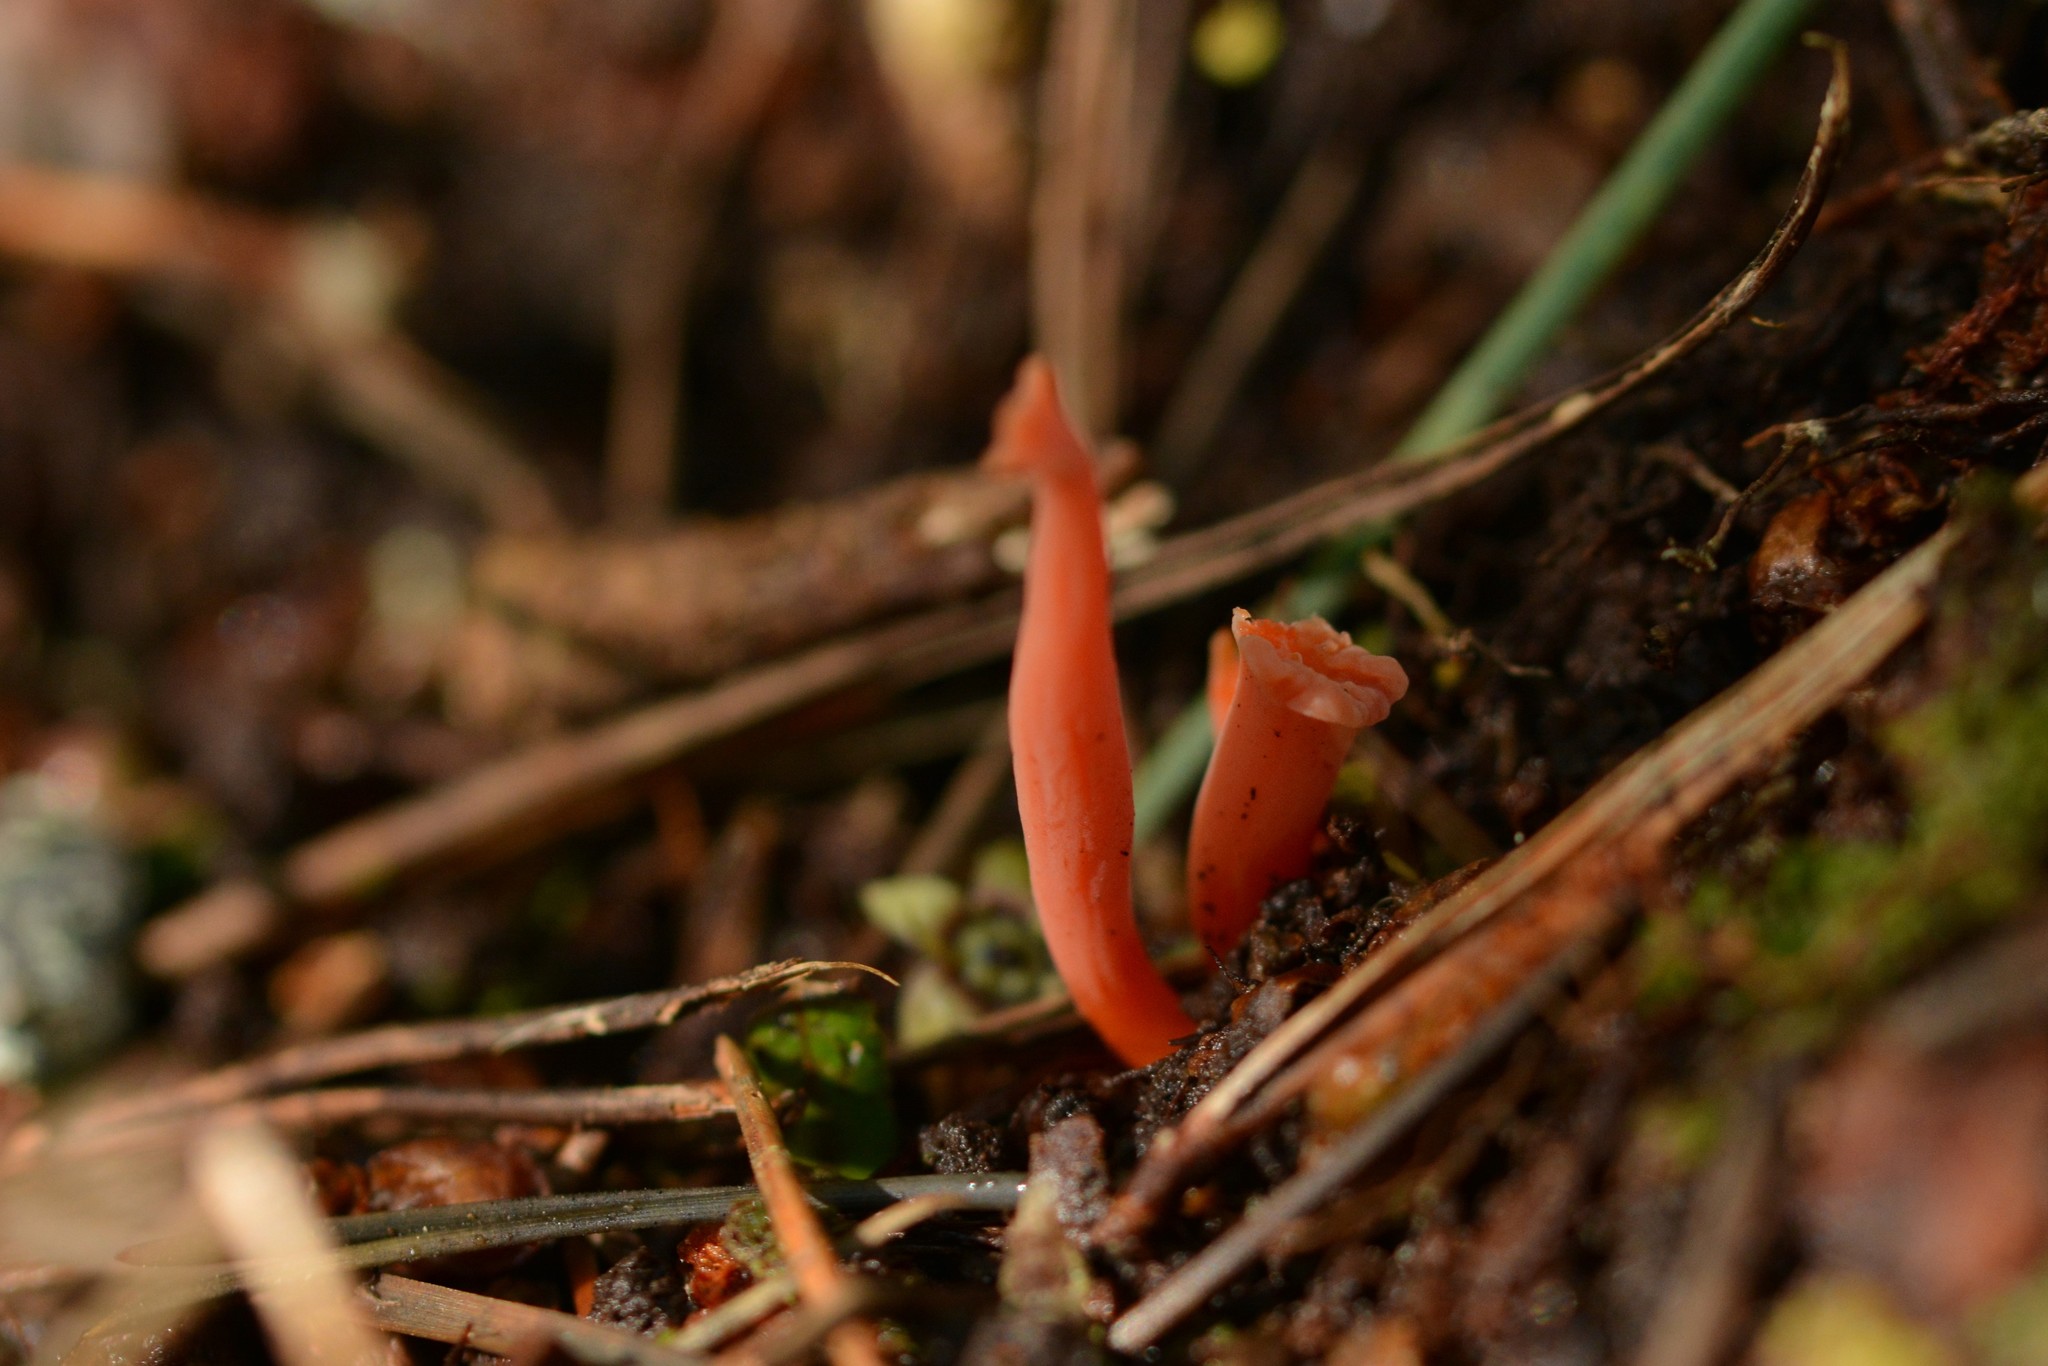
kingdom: Fungi
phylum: Basidiomycota
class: Agaricomycetes
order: Agaricales
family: Clavariaceae
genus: Clavulinopsis
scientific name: Clavulinopsis sulcata
